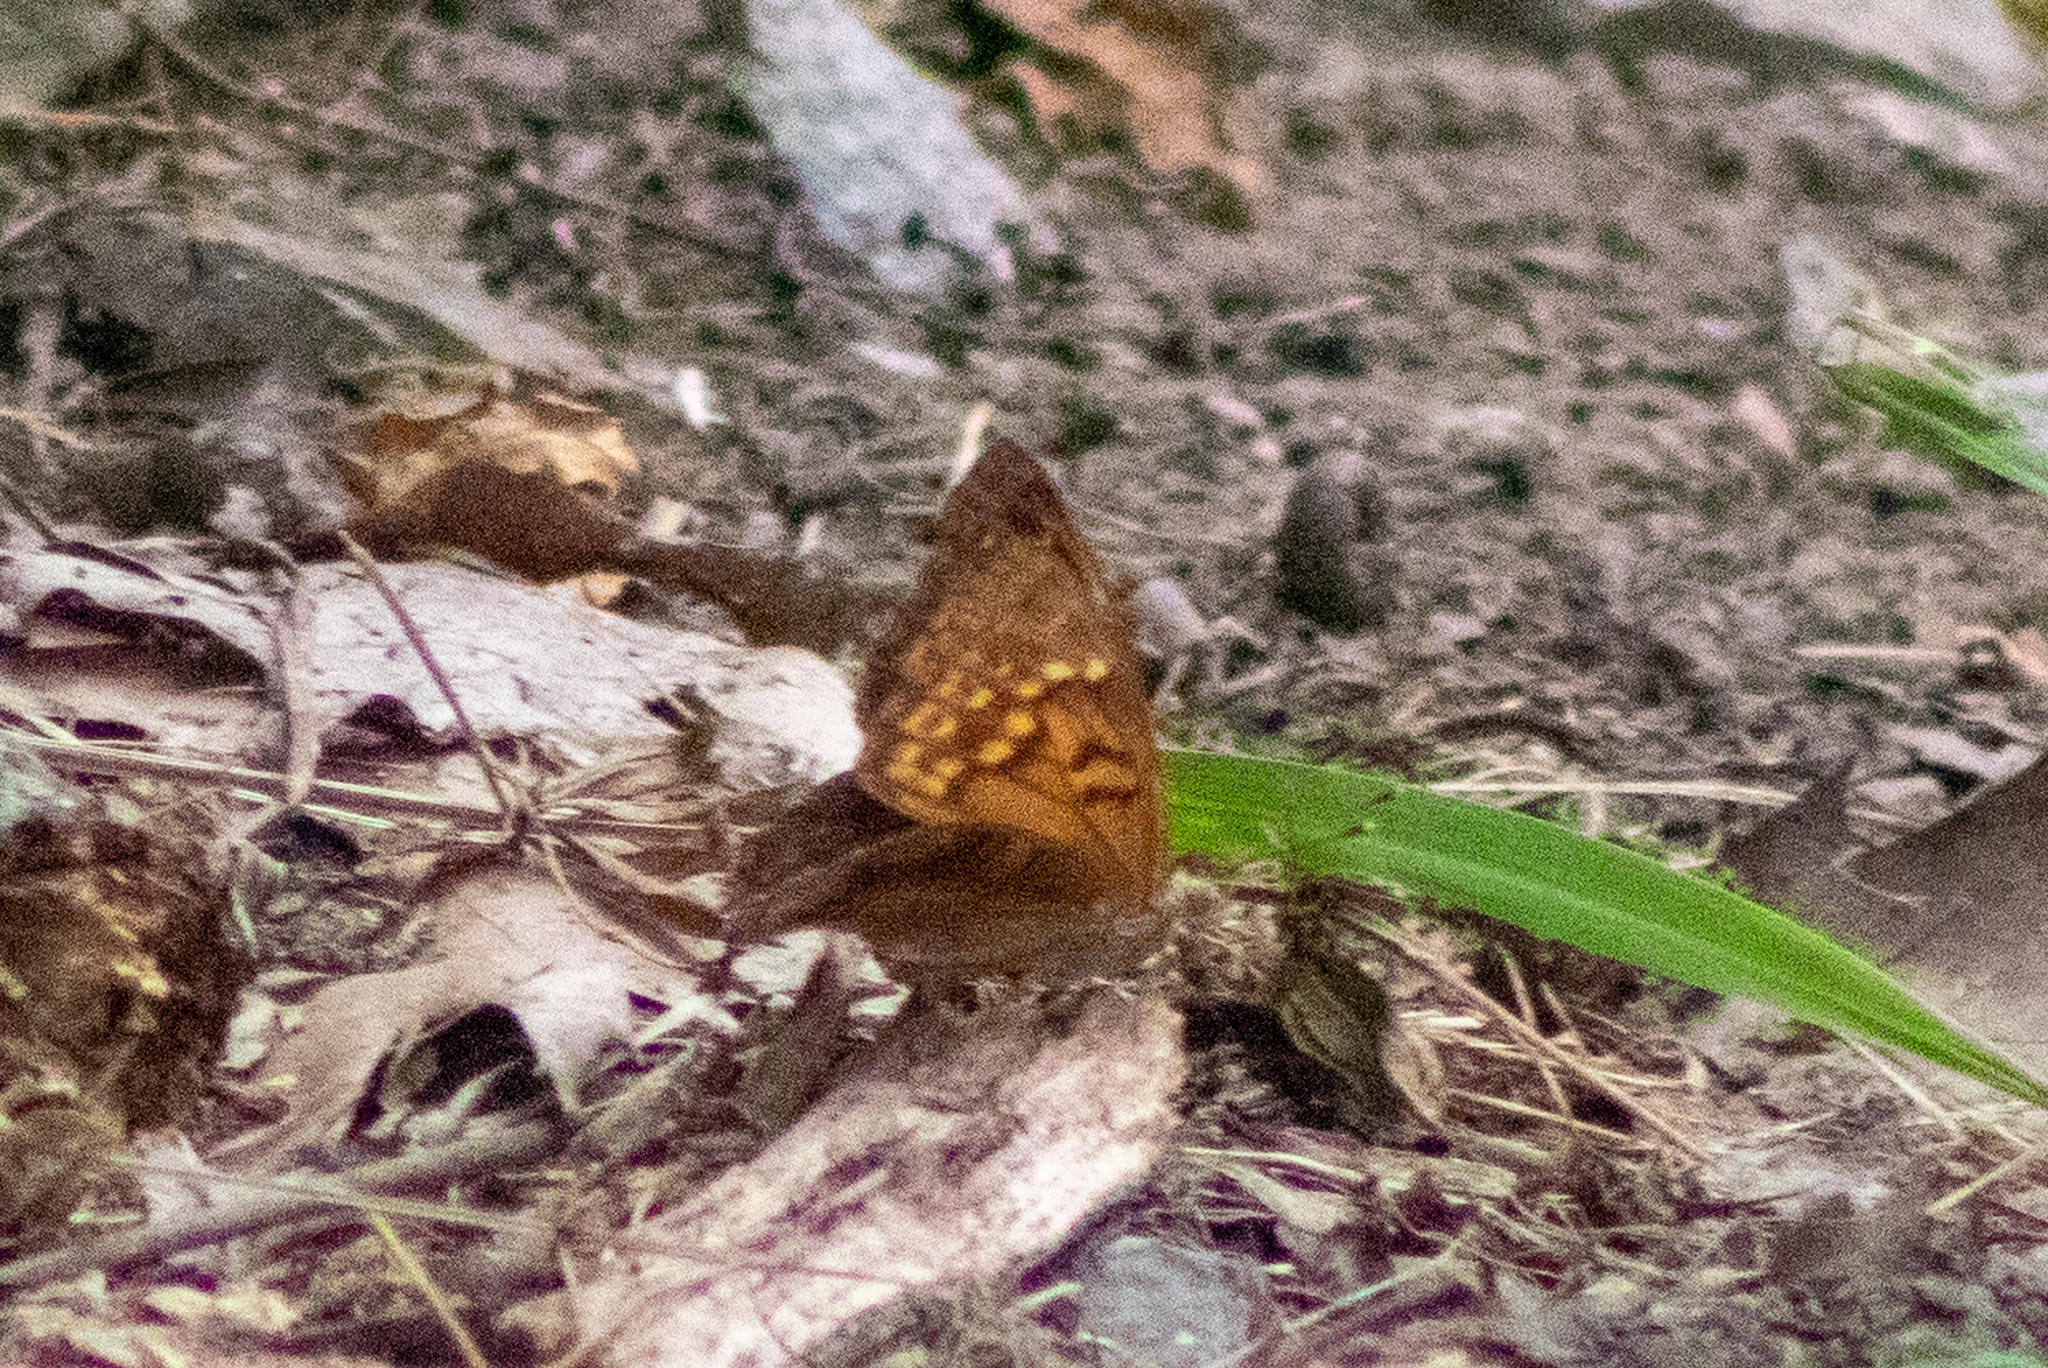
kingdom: Animalia
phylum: Arthropoda
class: Insecta
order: Lepidoptera
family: Nymphalidae
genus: Asterocampa
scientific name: Asterocampa clyton
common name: Tawny emperor
